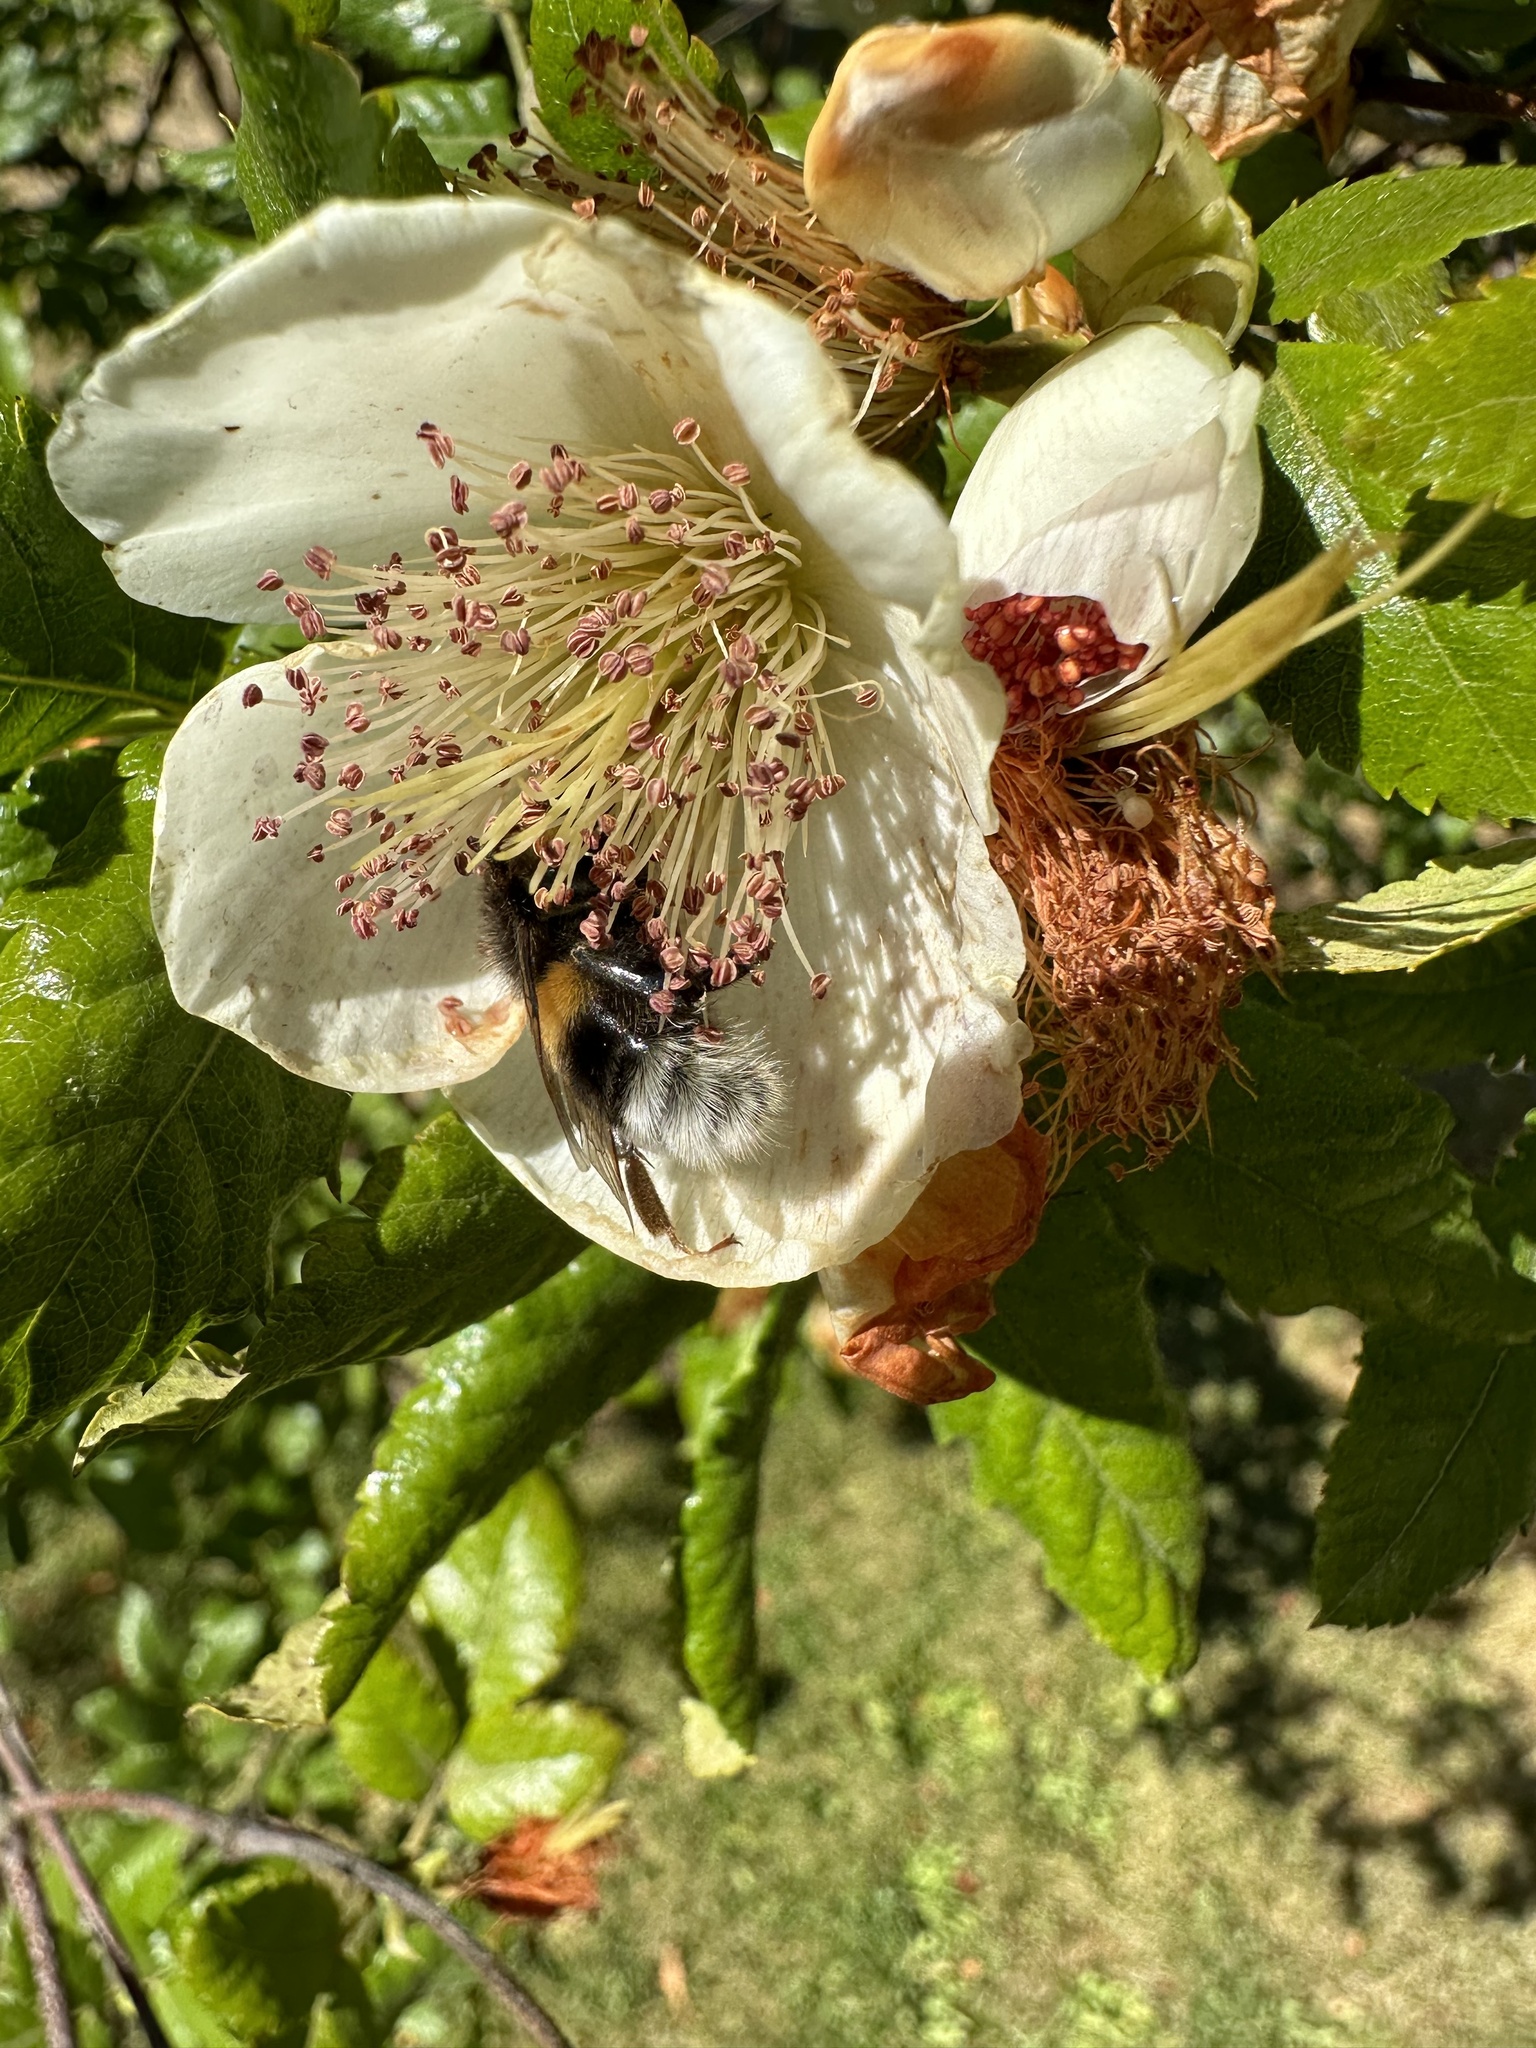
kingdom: Animalia
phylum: Arthropoda
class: Insecta
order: Hymenoptera
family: Apidae
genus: Bombus
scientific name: Bombus terrestris
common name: Buff-tailed bumblebee
